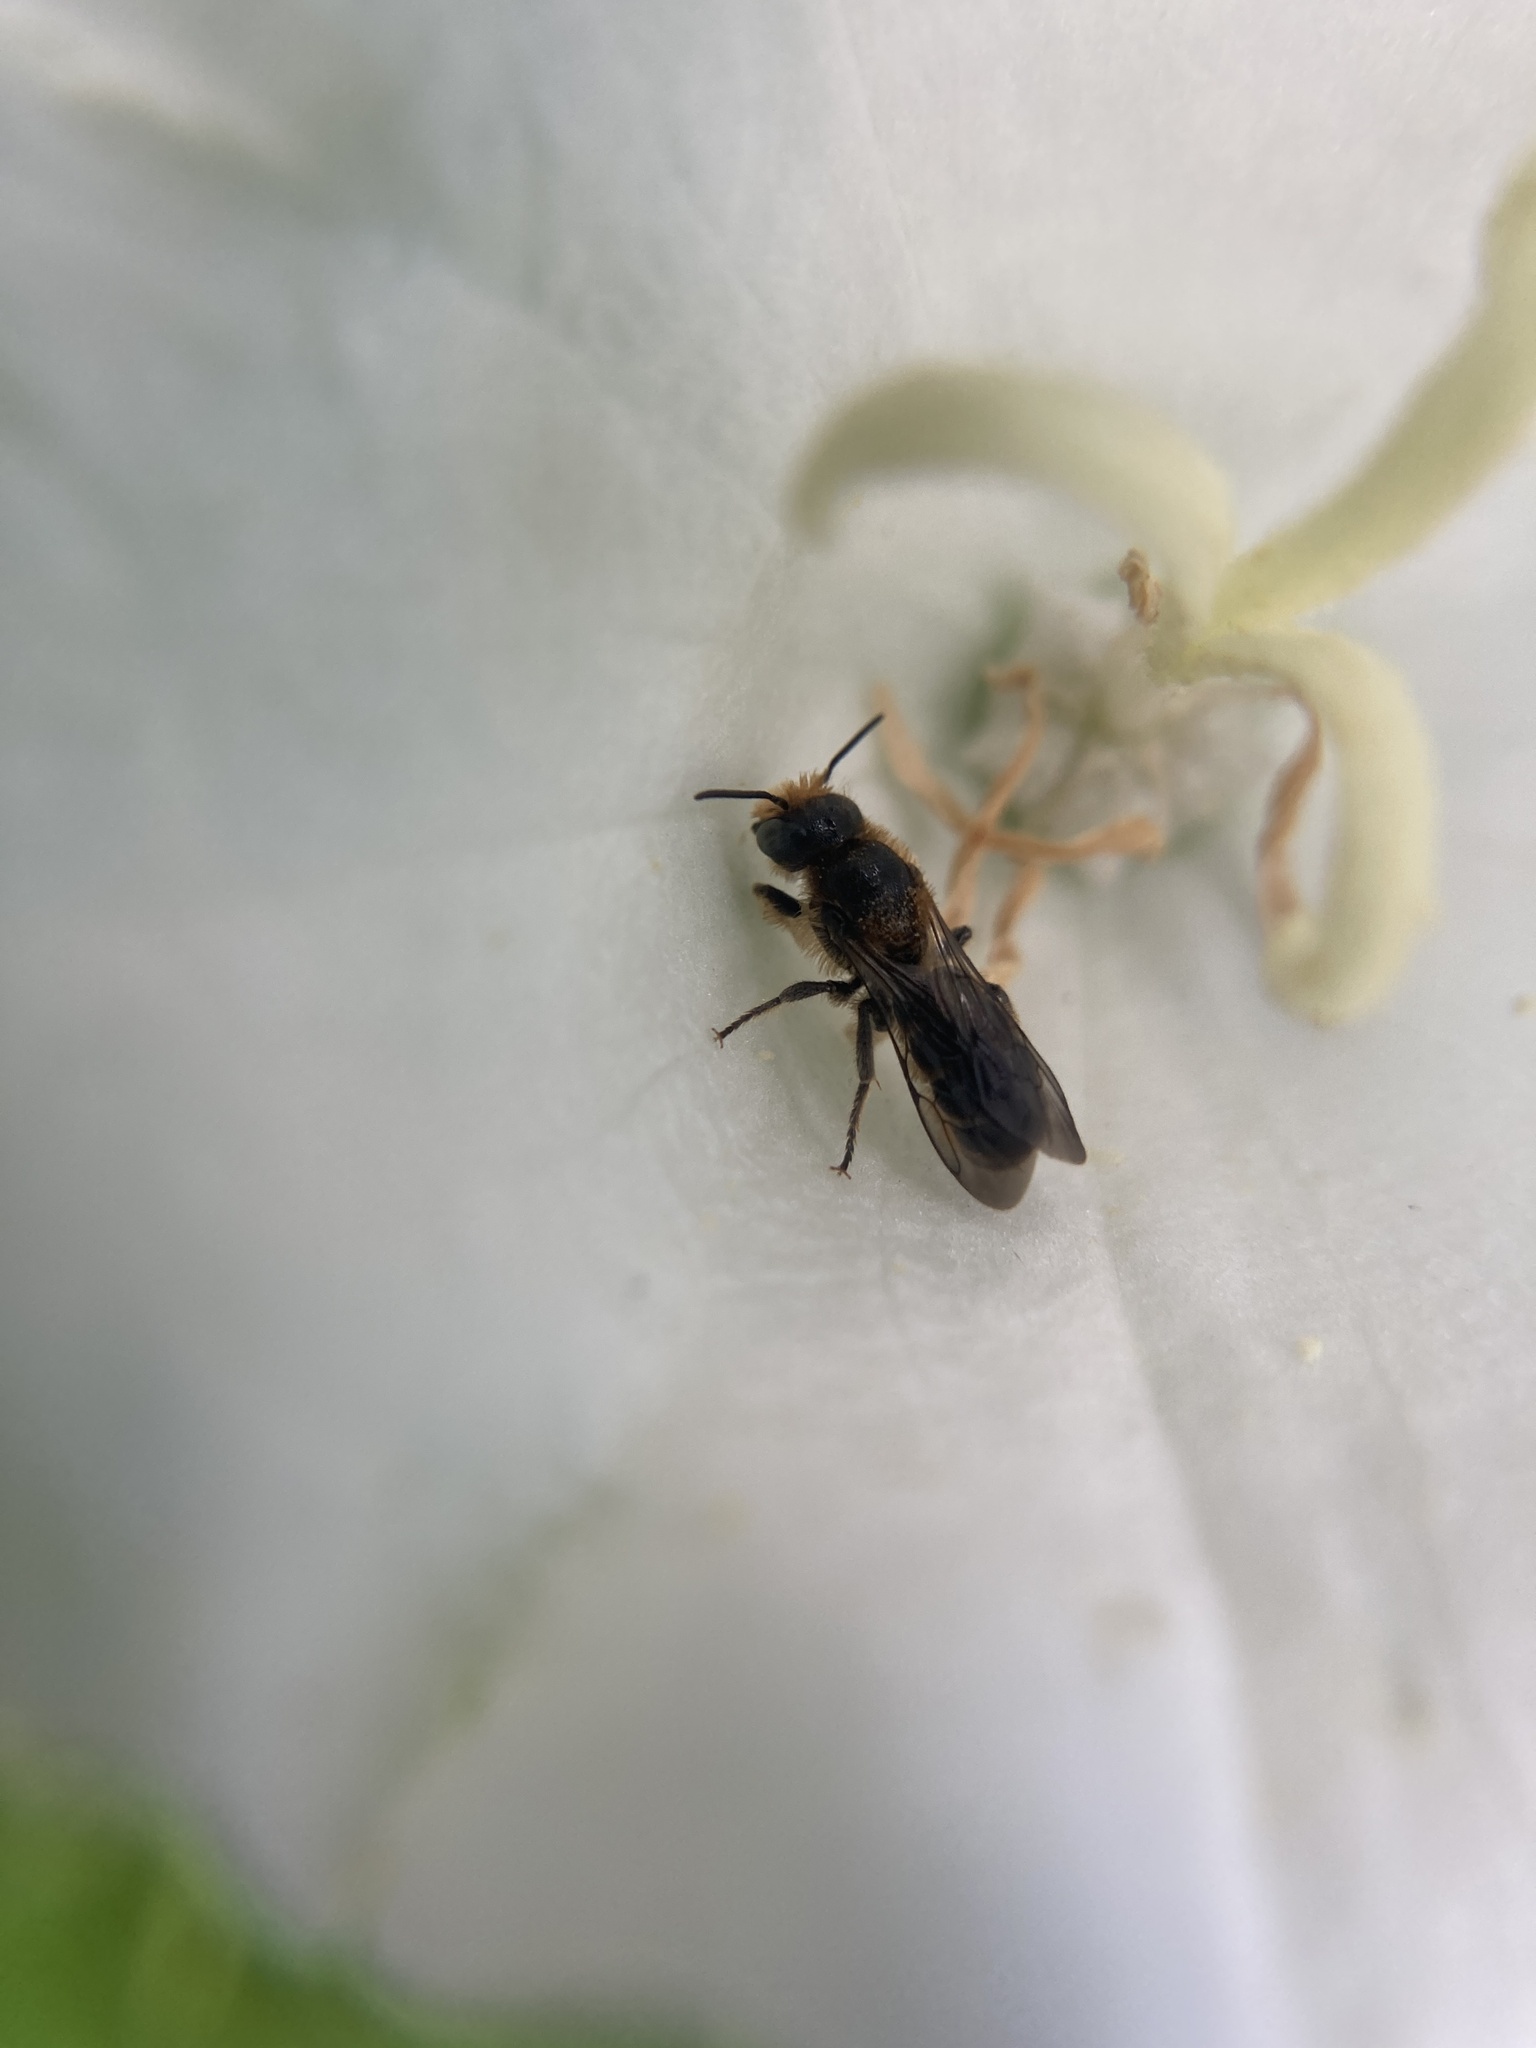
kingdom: Animalia
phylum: Arthropoda
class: Insecta
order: Hymenoptera
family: Megachilidae
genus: Chelostoma
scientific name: Chelostoma rapunculi
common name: Rampion scissor bee
